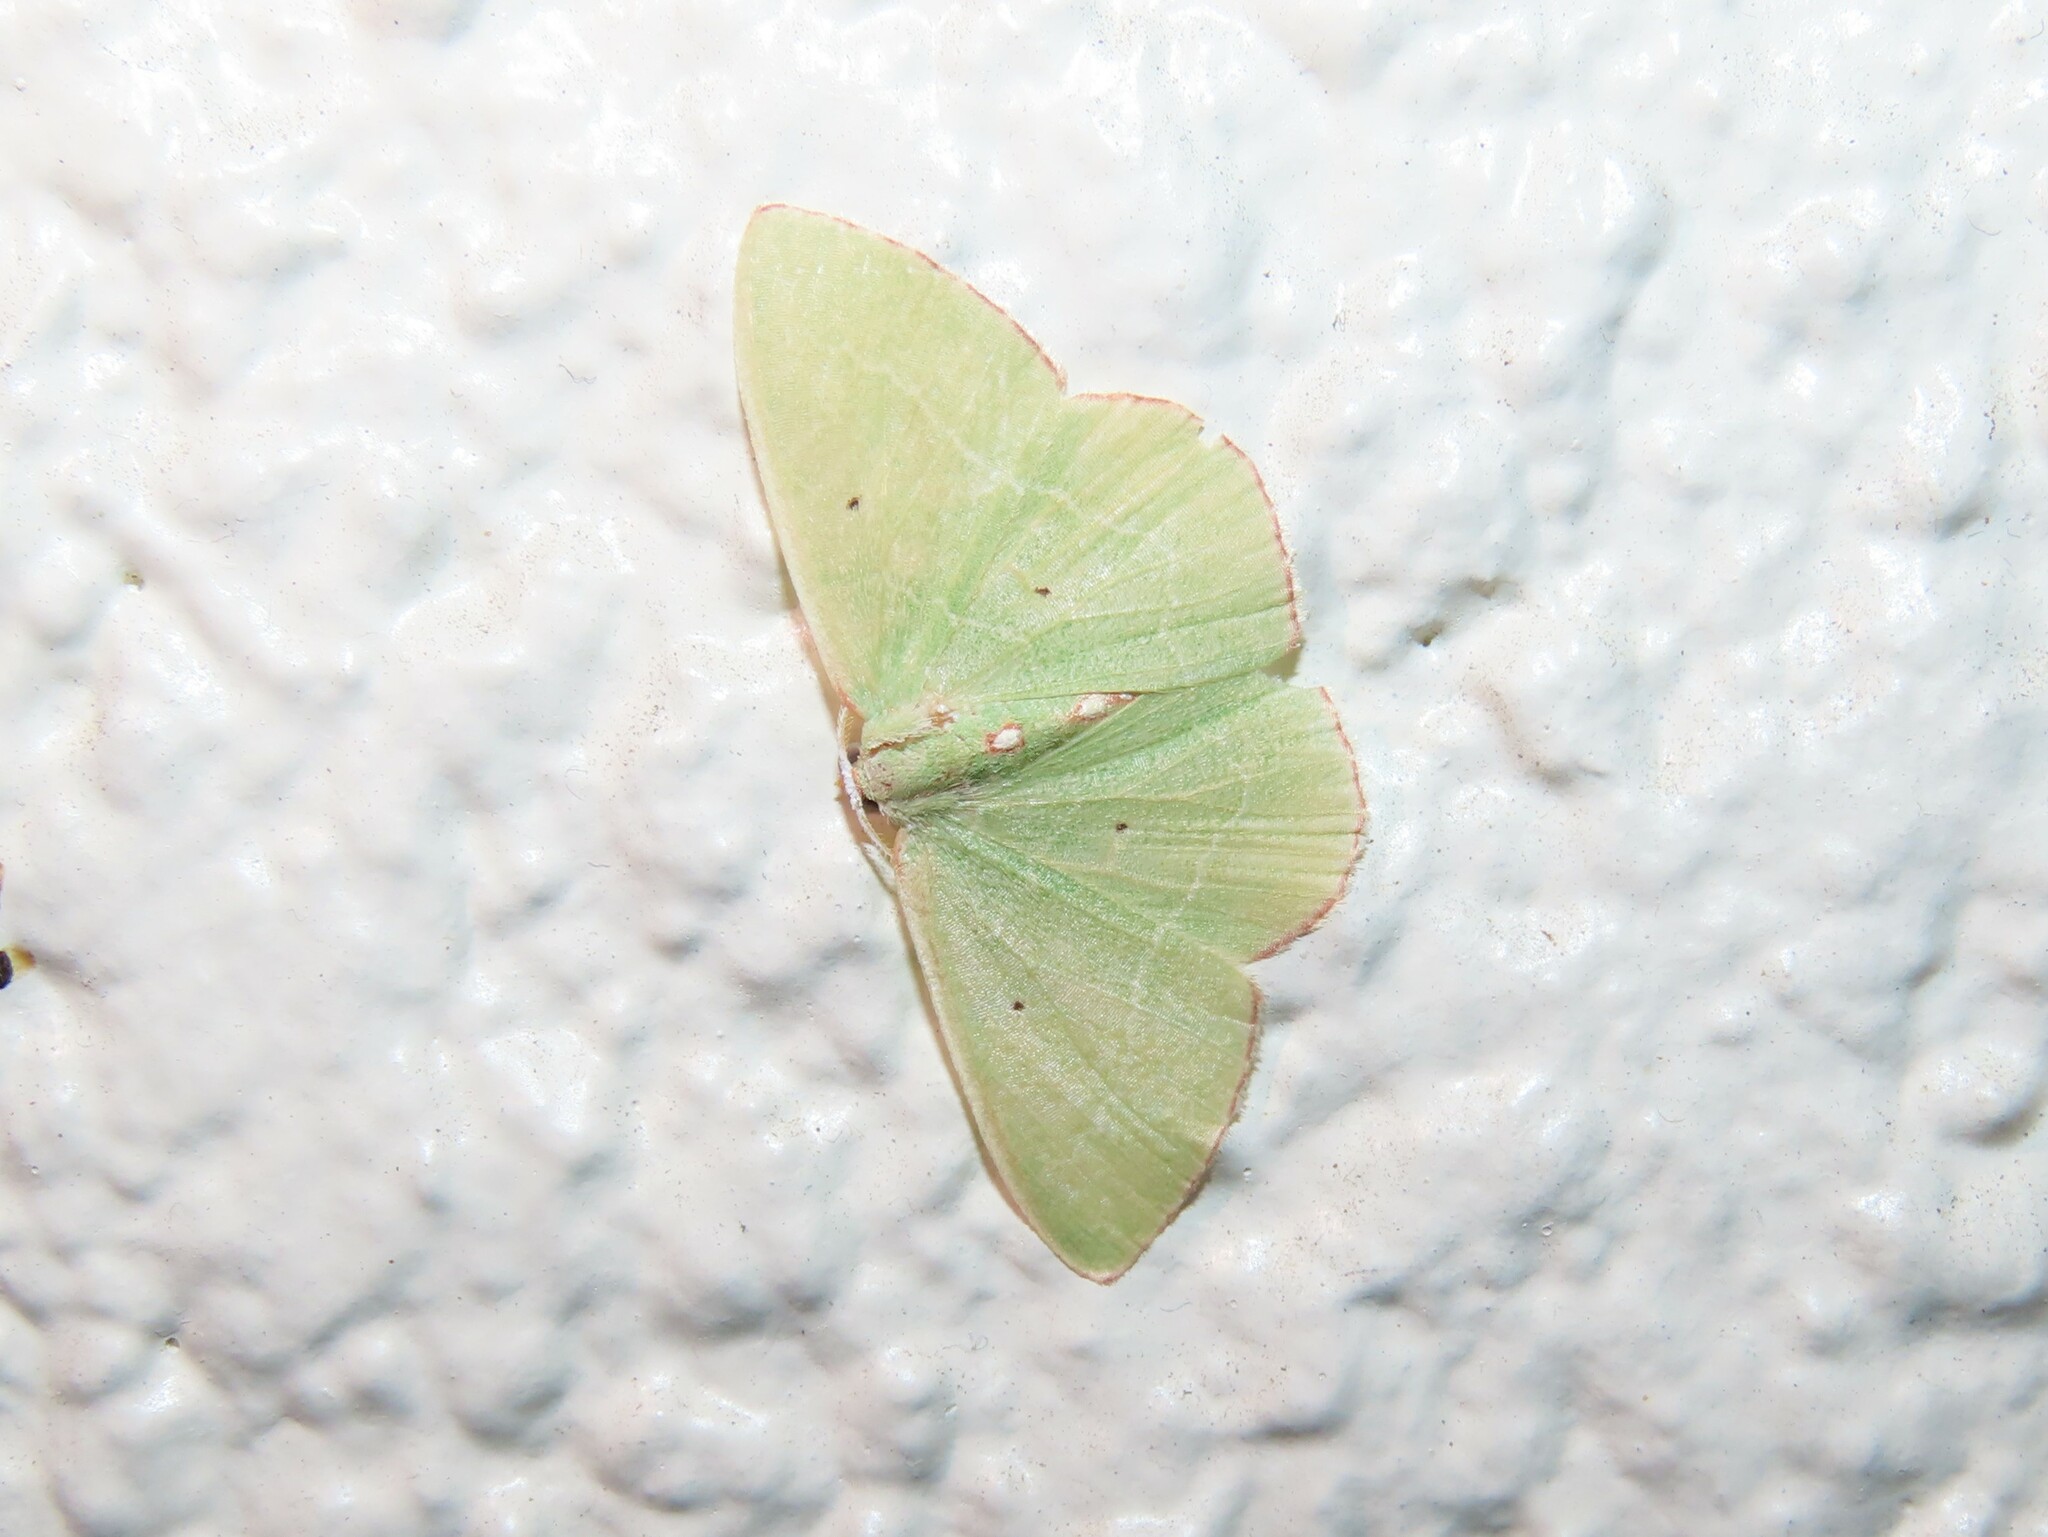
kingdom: Animalia
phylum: Arthropoda
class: Insecta
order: Lepidoptera
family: Geometridae
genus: Nemoria
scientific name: Nemoria lixaria
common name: Red-bordered emerald
